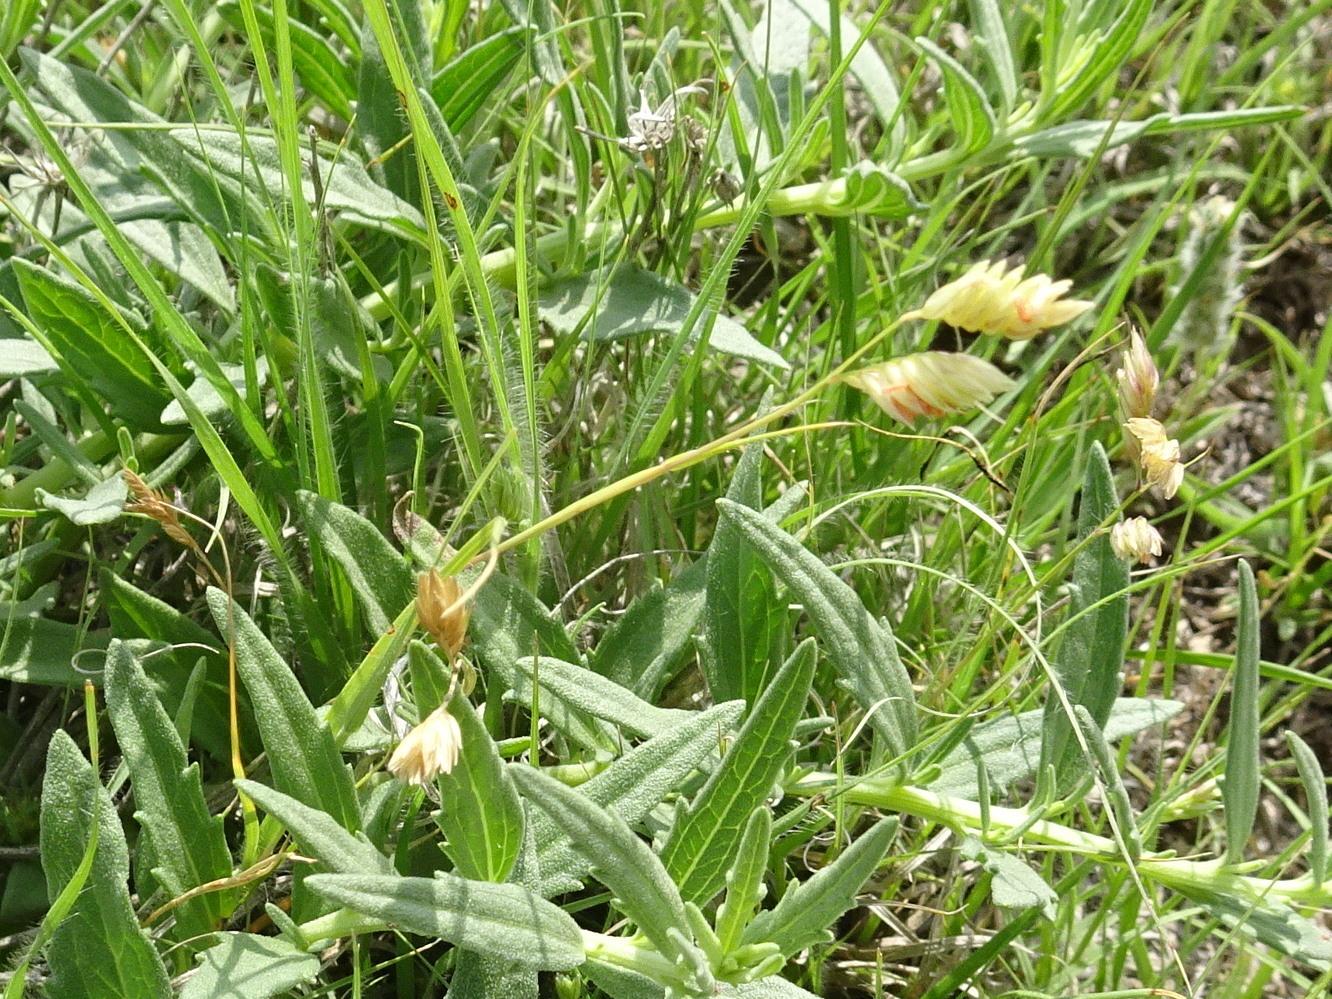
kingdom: Plantae
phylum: Tracheophyta
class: Liliopsida
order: Poales
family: Poaceae
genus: Bouteloua
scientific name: Bouteloua dactyloides
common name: Buffalo grass
